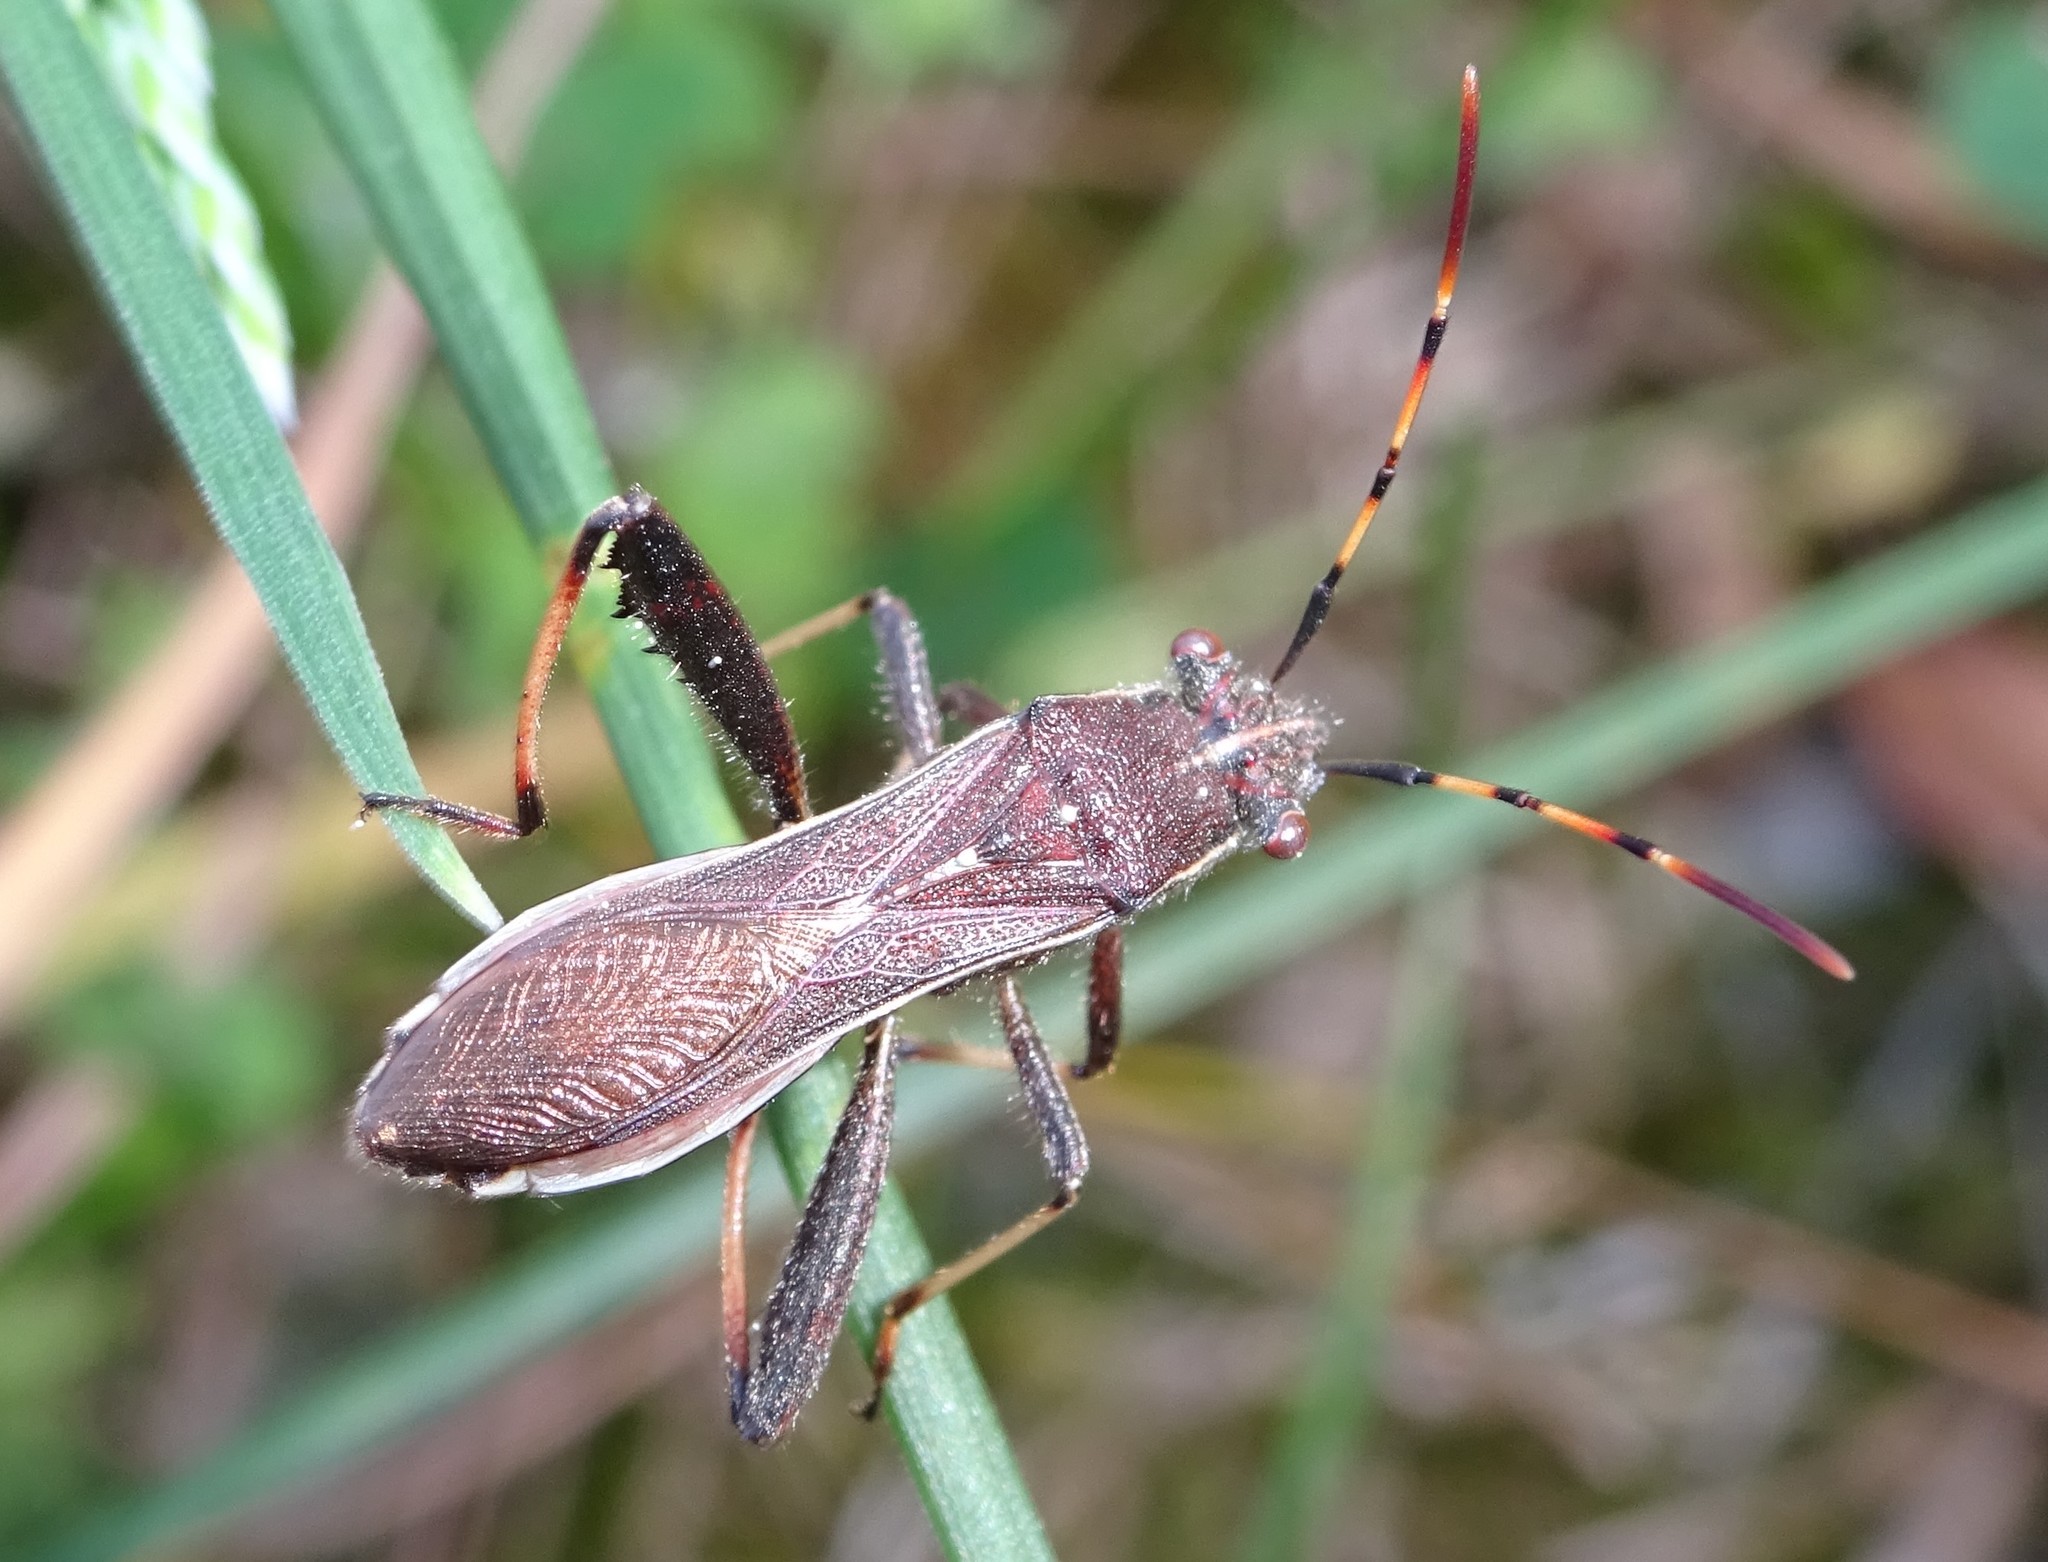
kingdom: Animalia
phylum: Arthropoda
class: Insecta
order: Hemiptera
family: Alydidae
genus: Camptopus
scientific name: Camptopus lateralis
